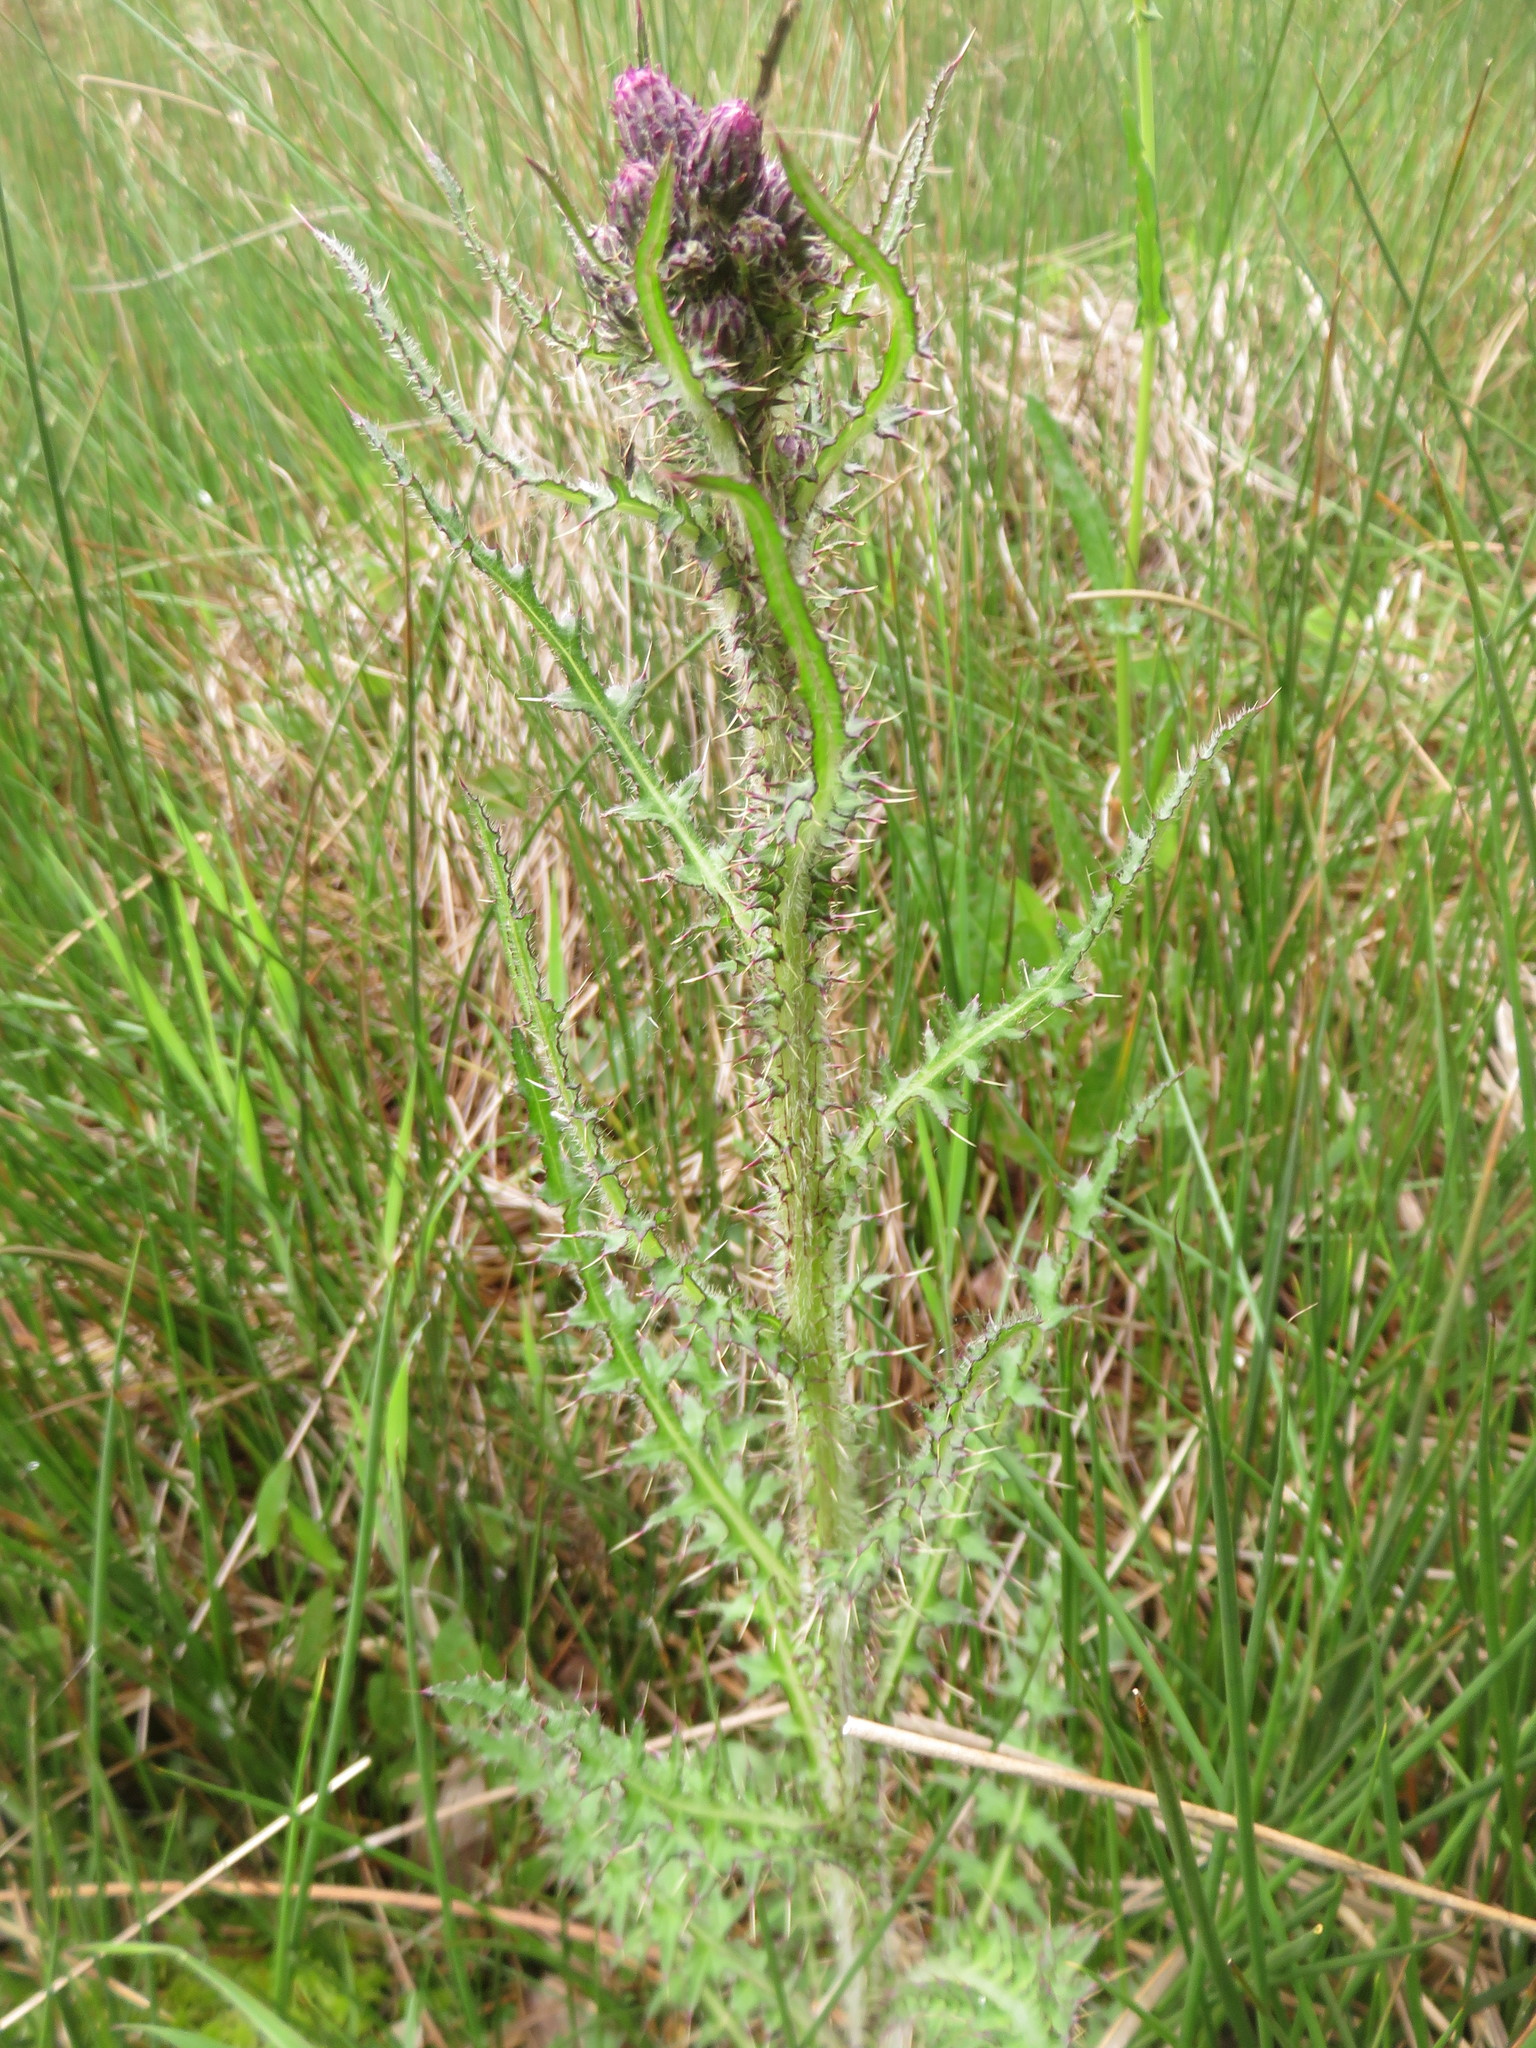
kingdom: Plantae
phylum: Tracheophyta
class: Magnoliopsida
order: Asterales
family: Asteraceae
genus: Cirsium
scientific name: Cirsium palustre
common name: Marsh thistle
